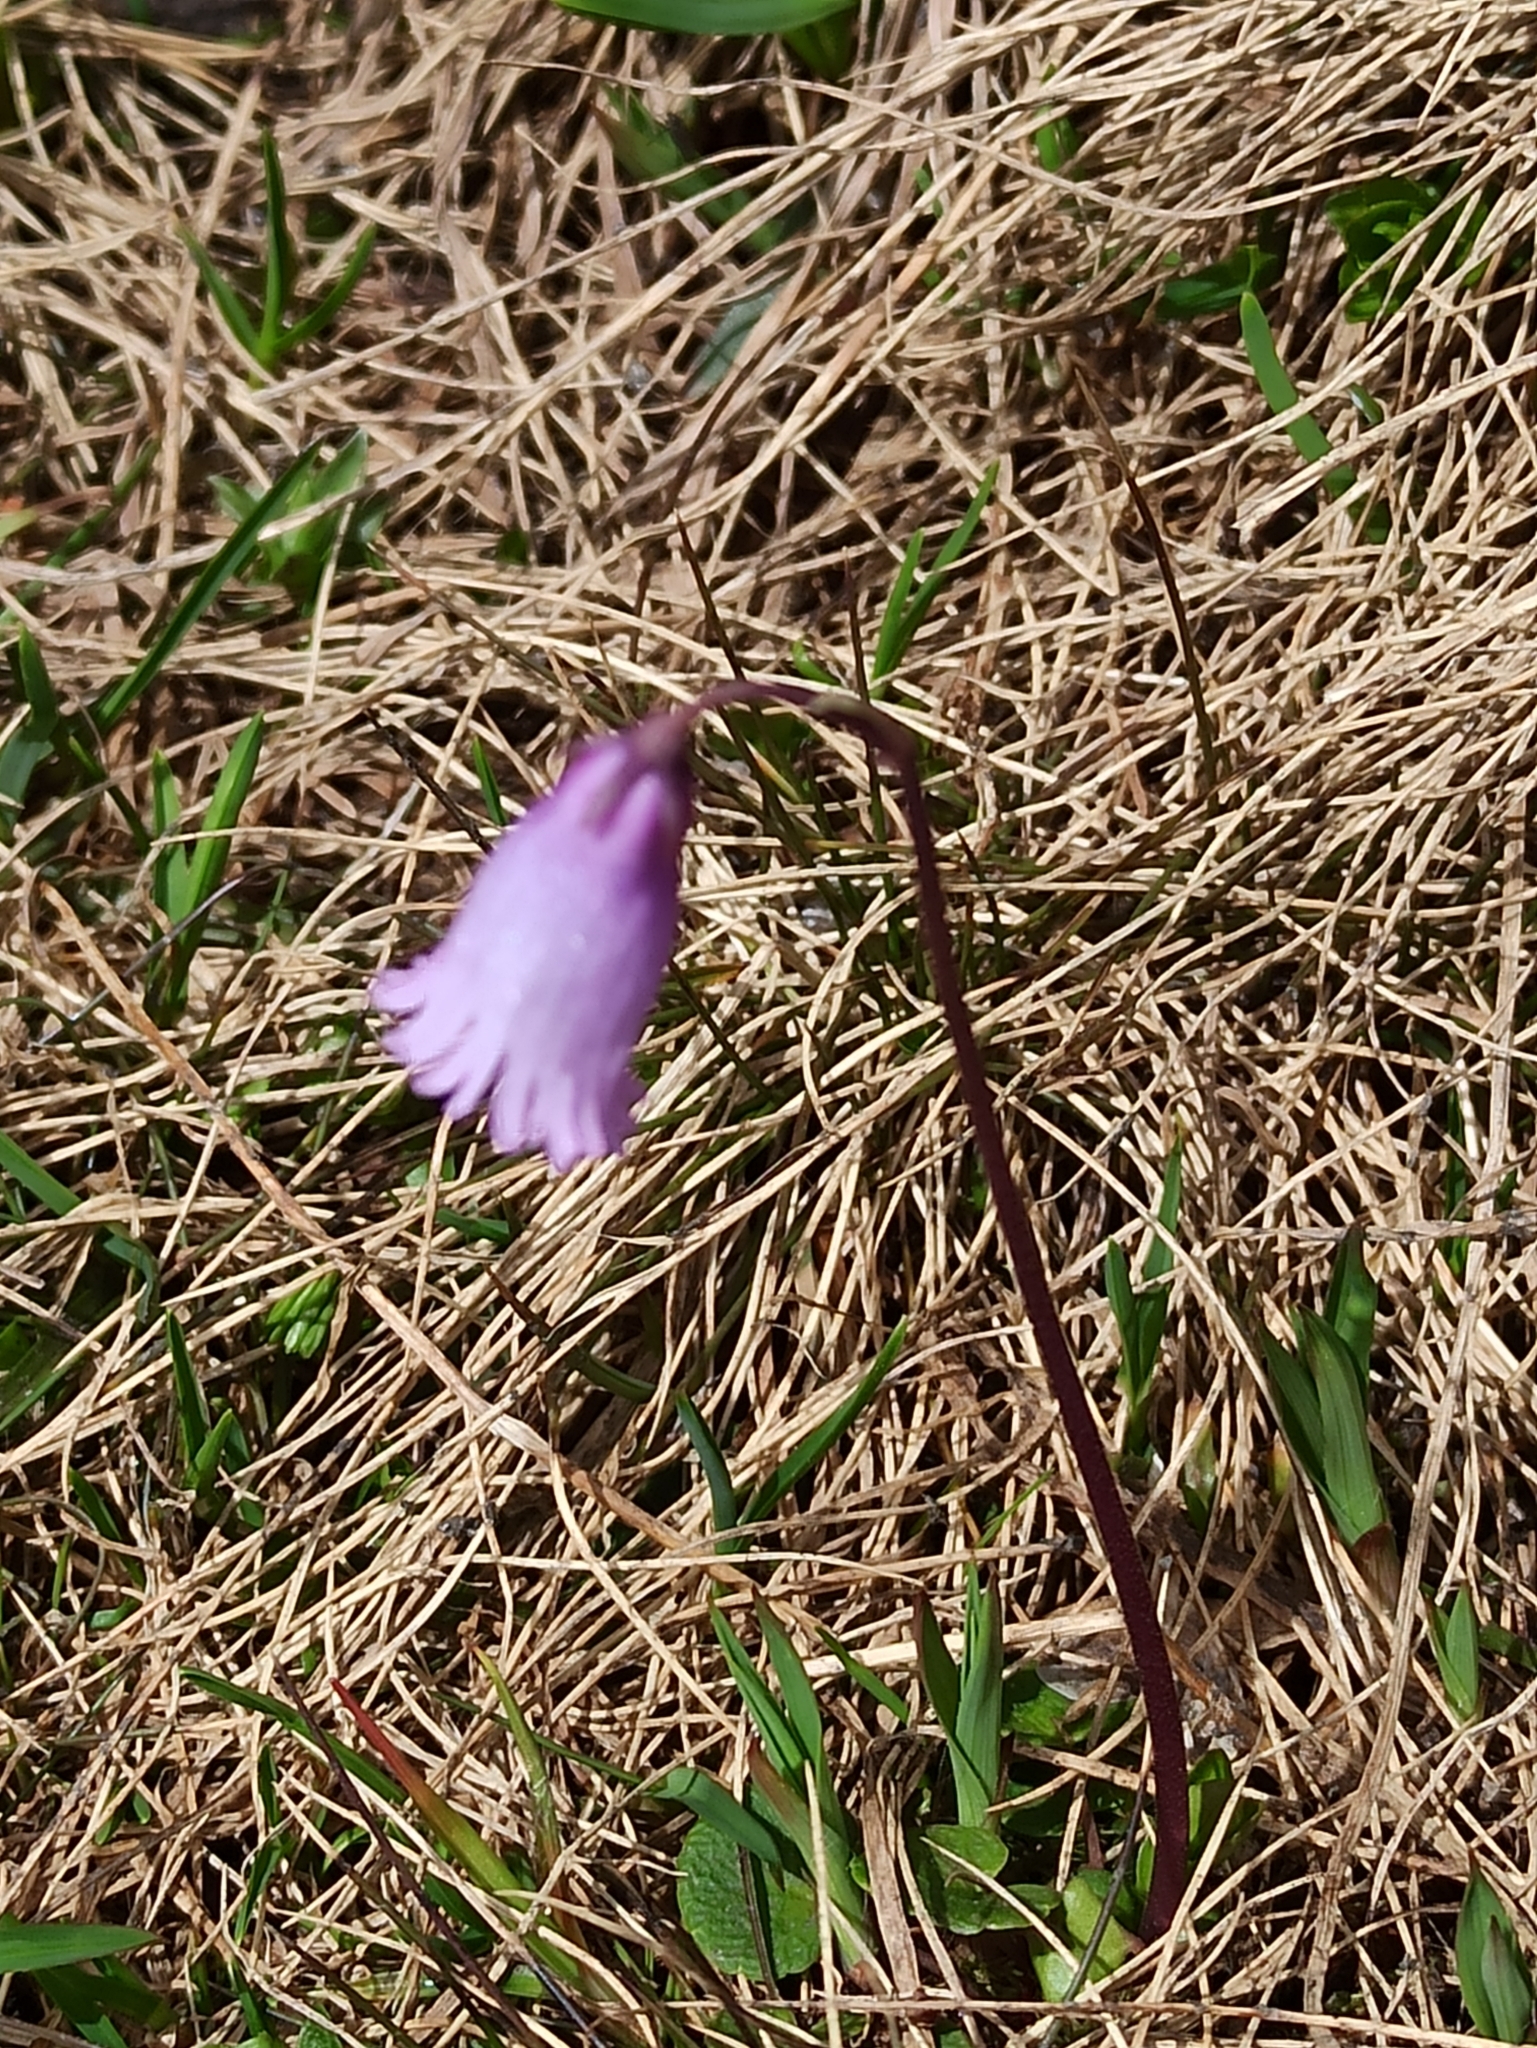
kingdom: Plantae
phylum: Tracheophyta
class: Magnoliopsida
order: Ericales
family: Primulaceae
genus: Soldanella
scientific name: Soldanella alpicola
